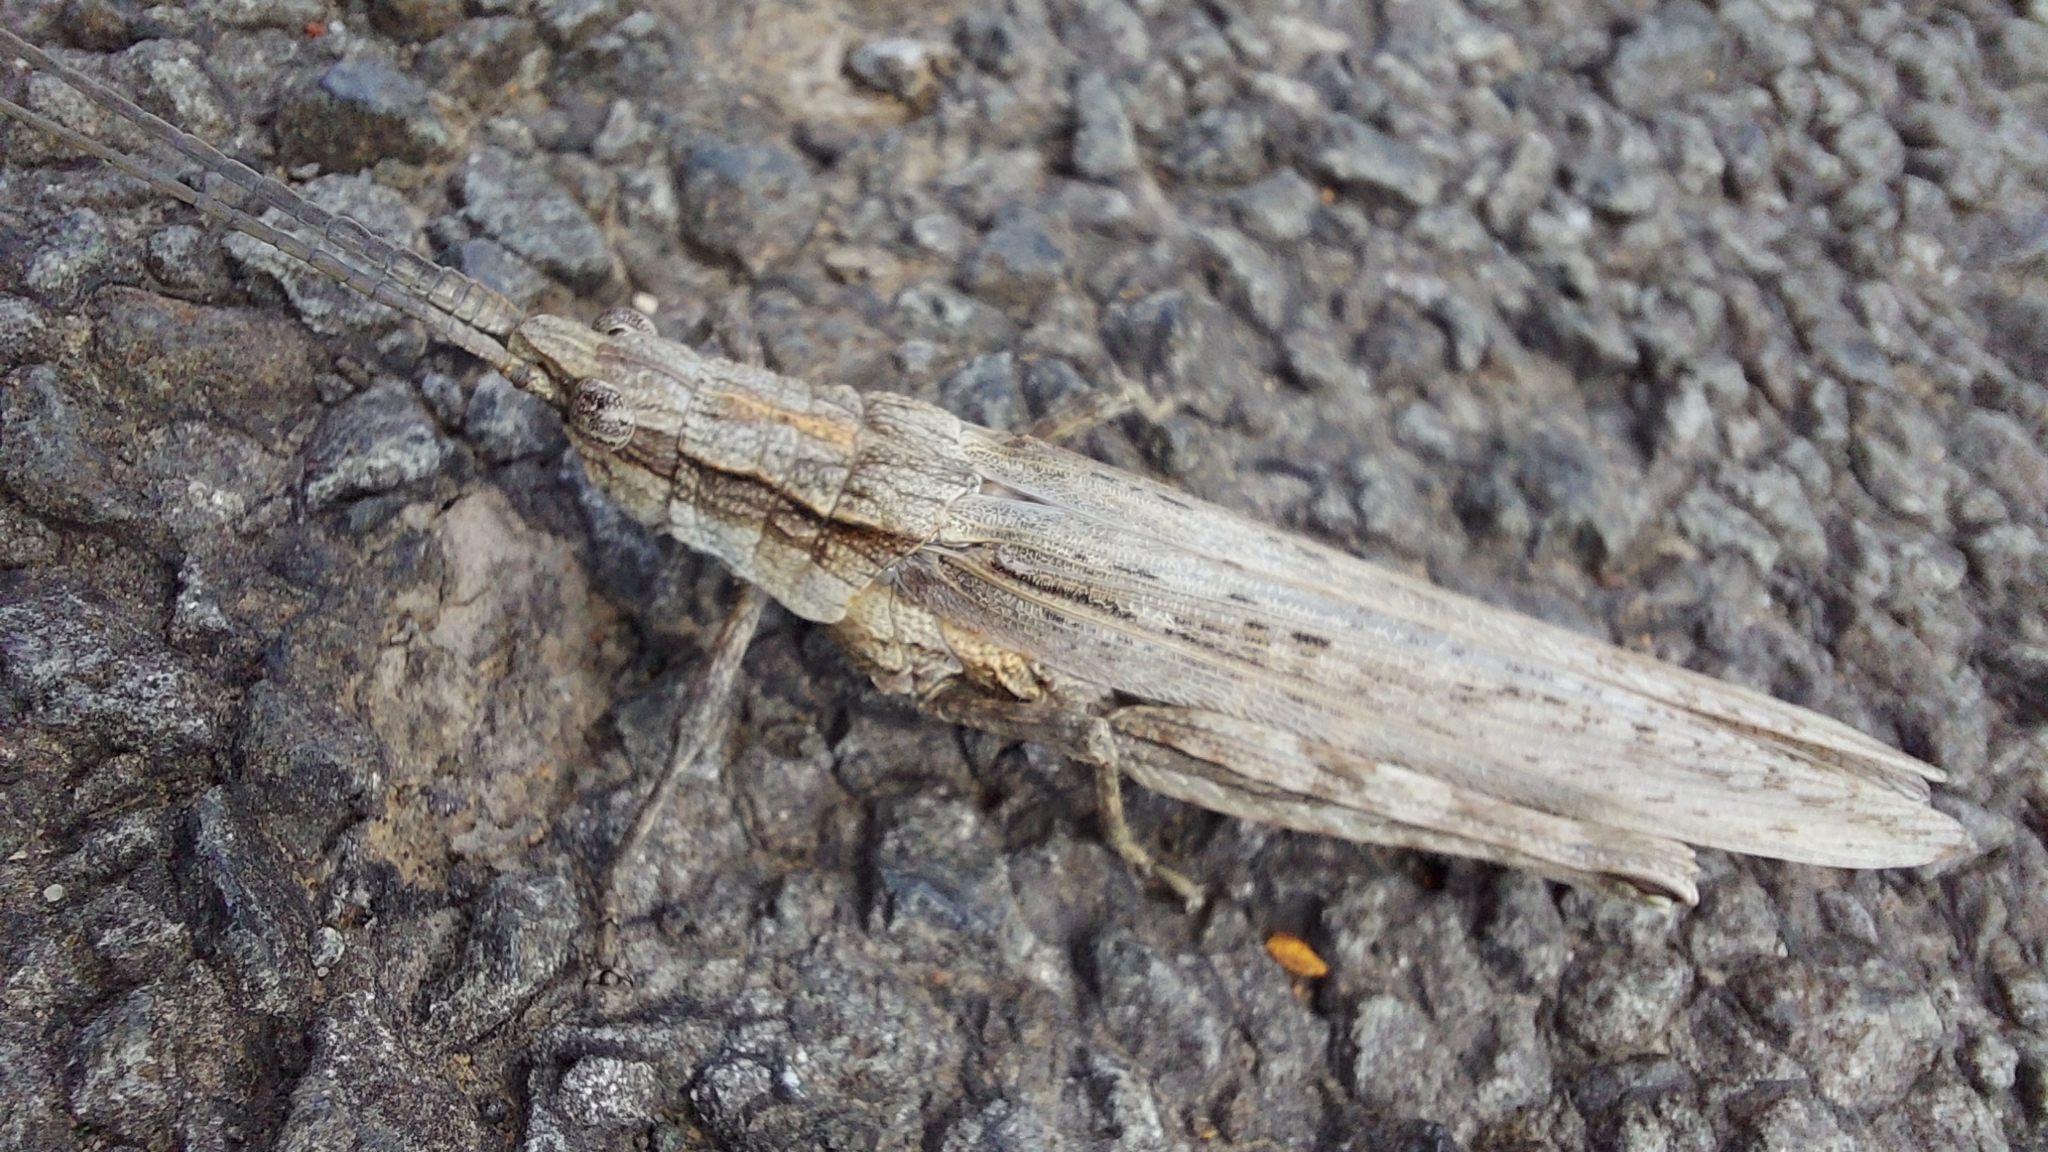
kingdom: Animalia
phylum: Arthropoda
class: Insecta
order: Orthoptera
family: Acrididae
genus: Coryphistes
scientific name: Coryphistes ruricola
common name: Bark-mimicking grasshopper
